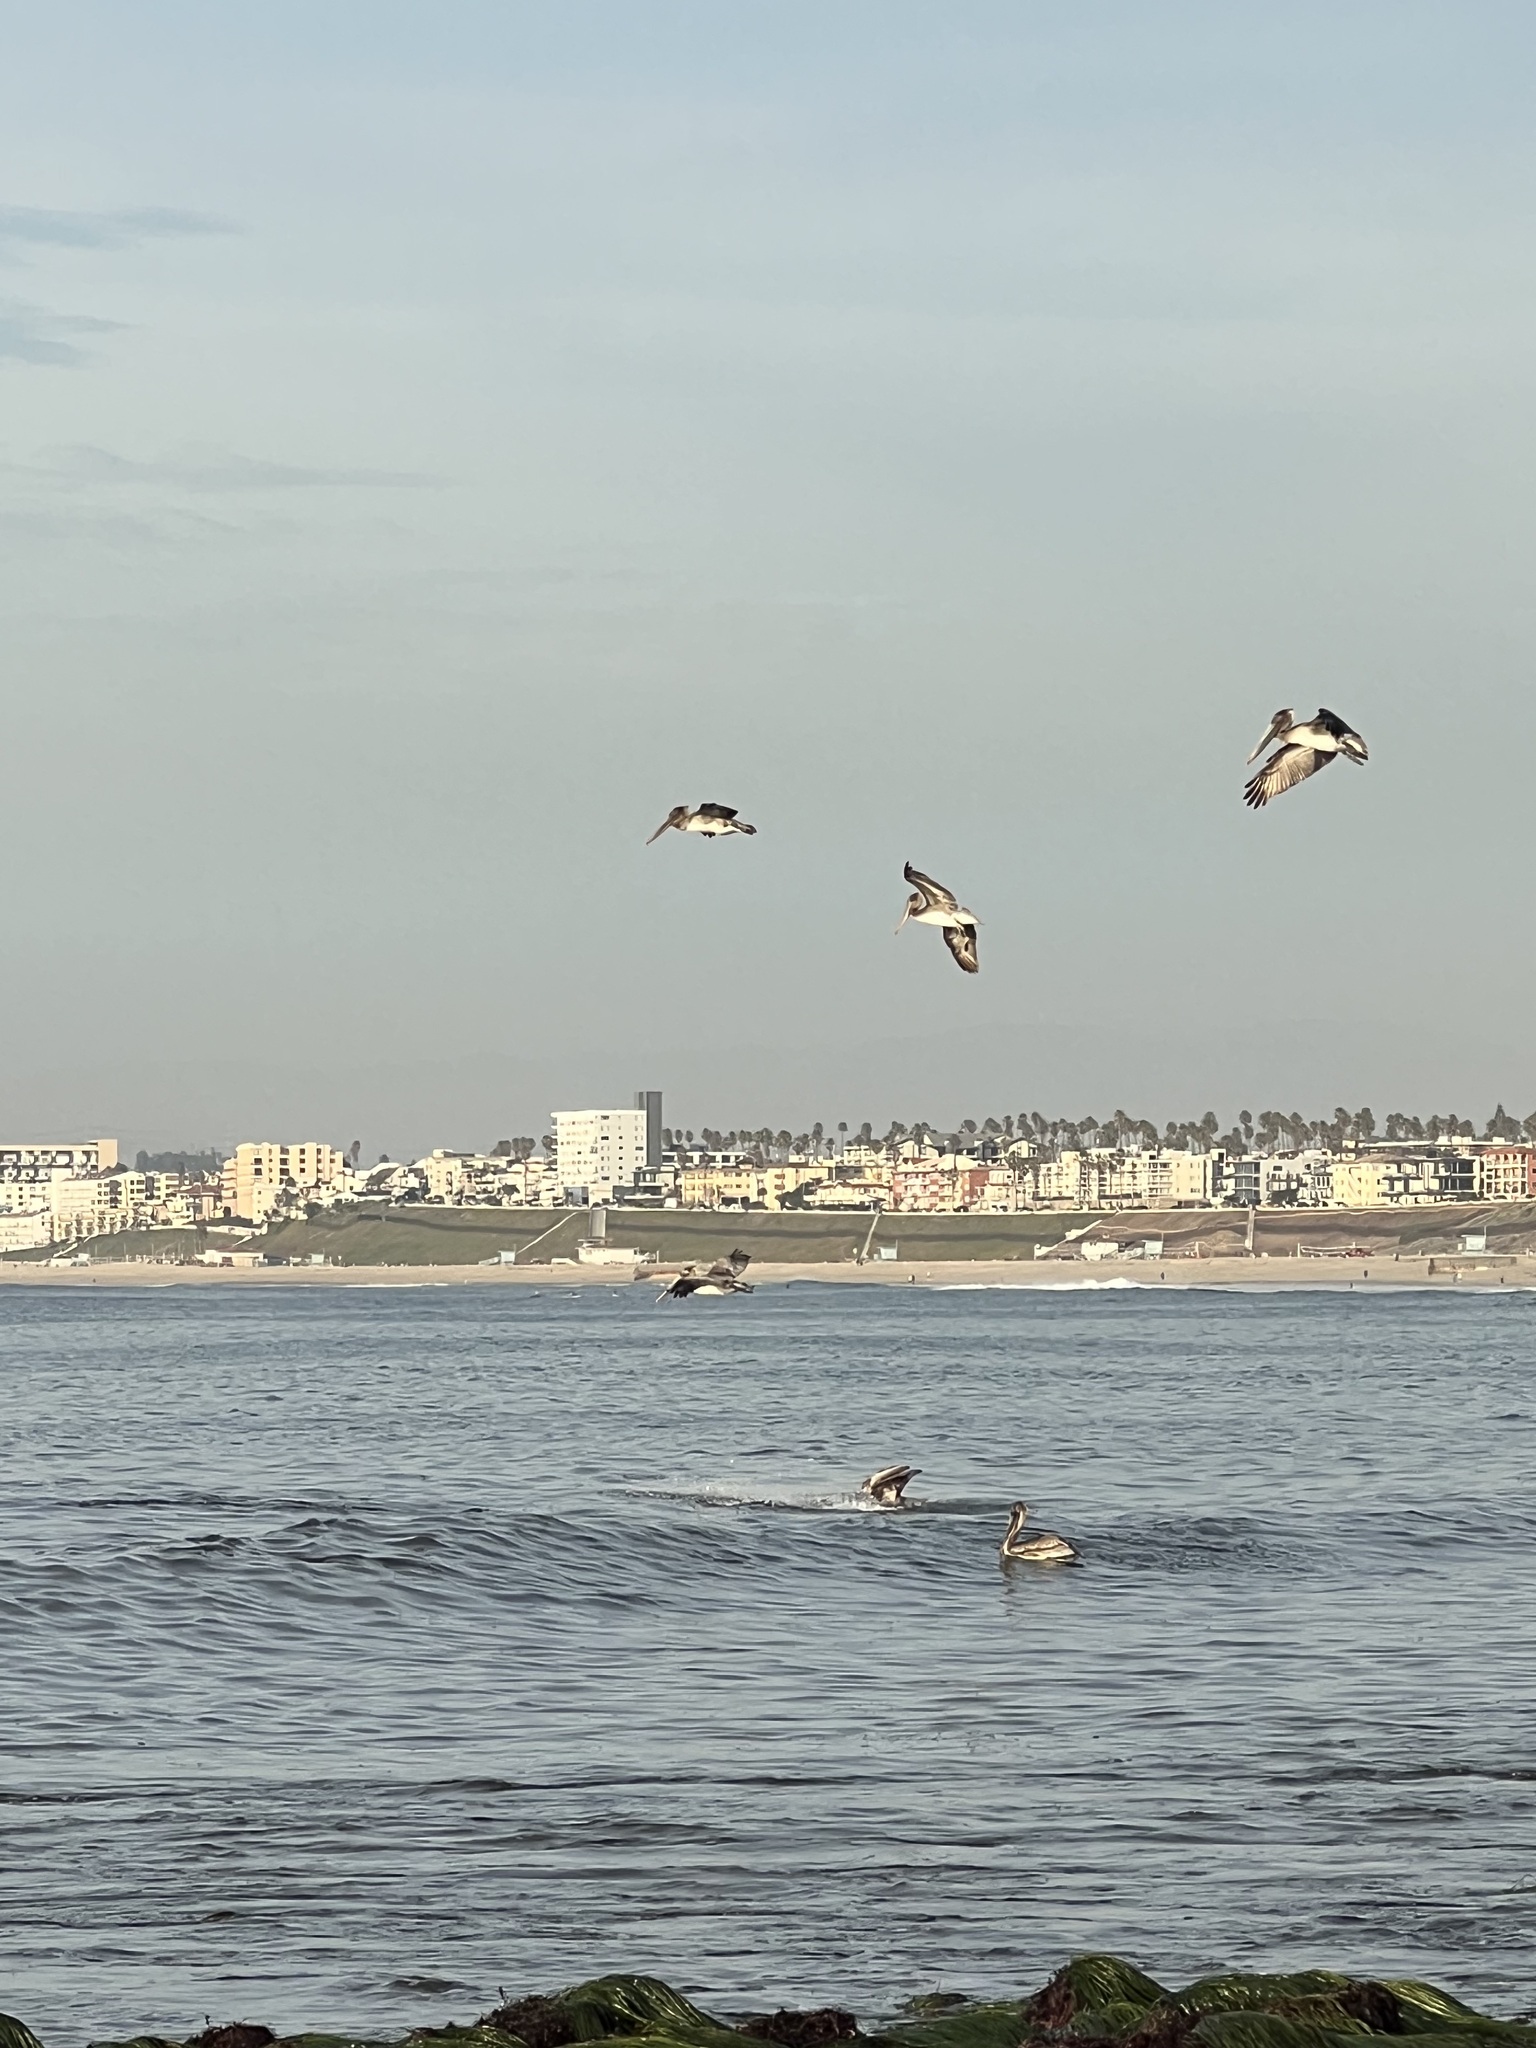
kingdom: Animalia
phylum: Chordata
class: Aves
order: Pelecaniformes
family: Pelecanidae
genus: Pelecanus
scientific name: Pelecanus occidentalis
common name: Brown pelican
